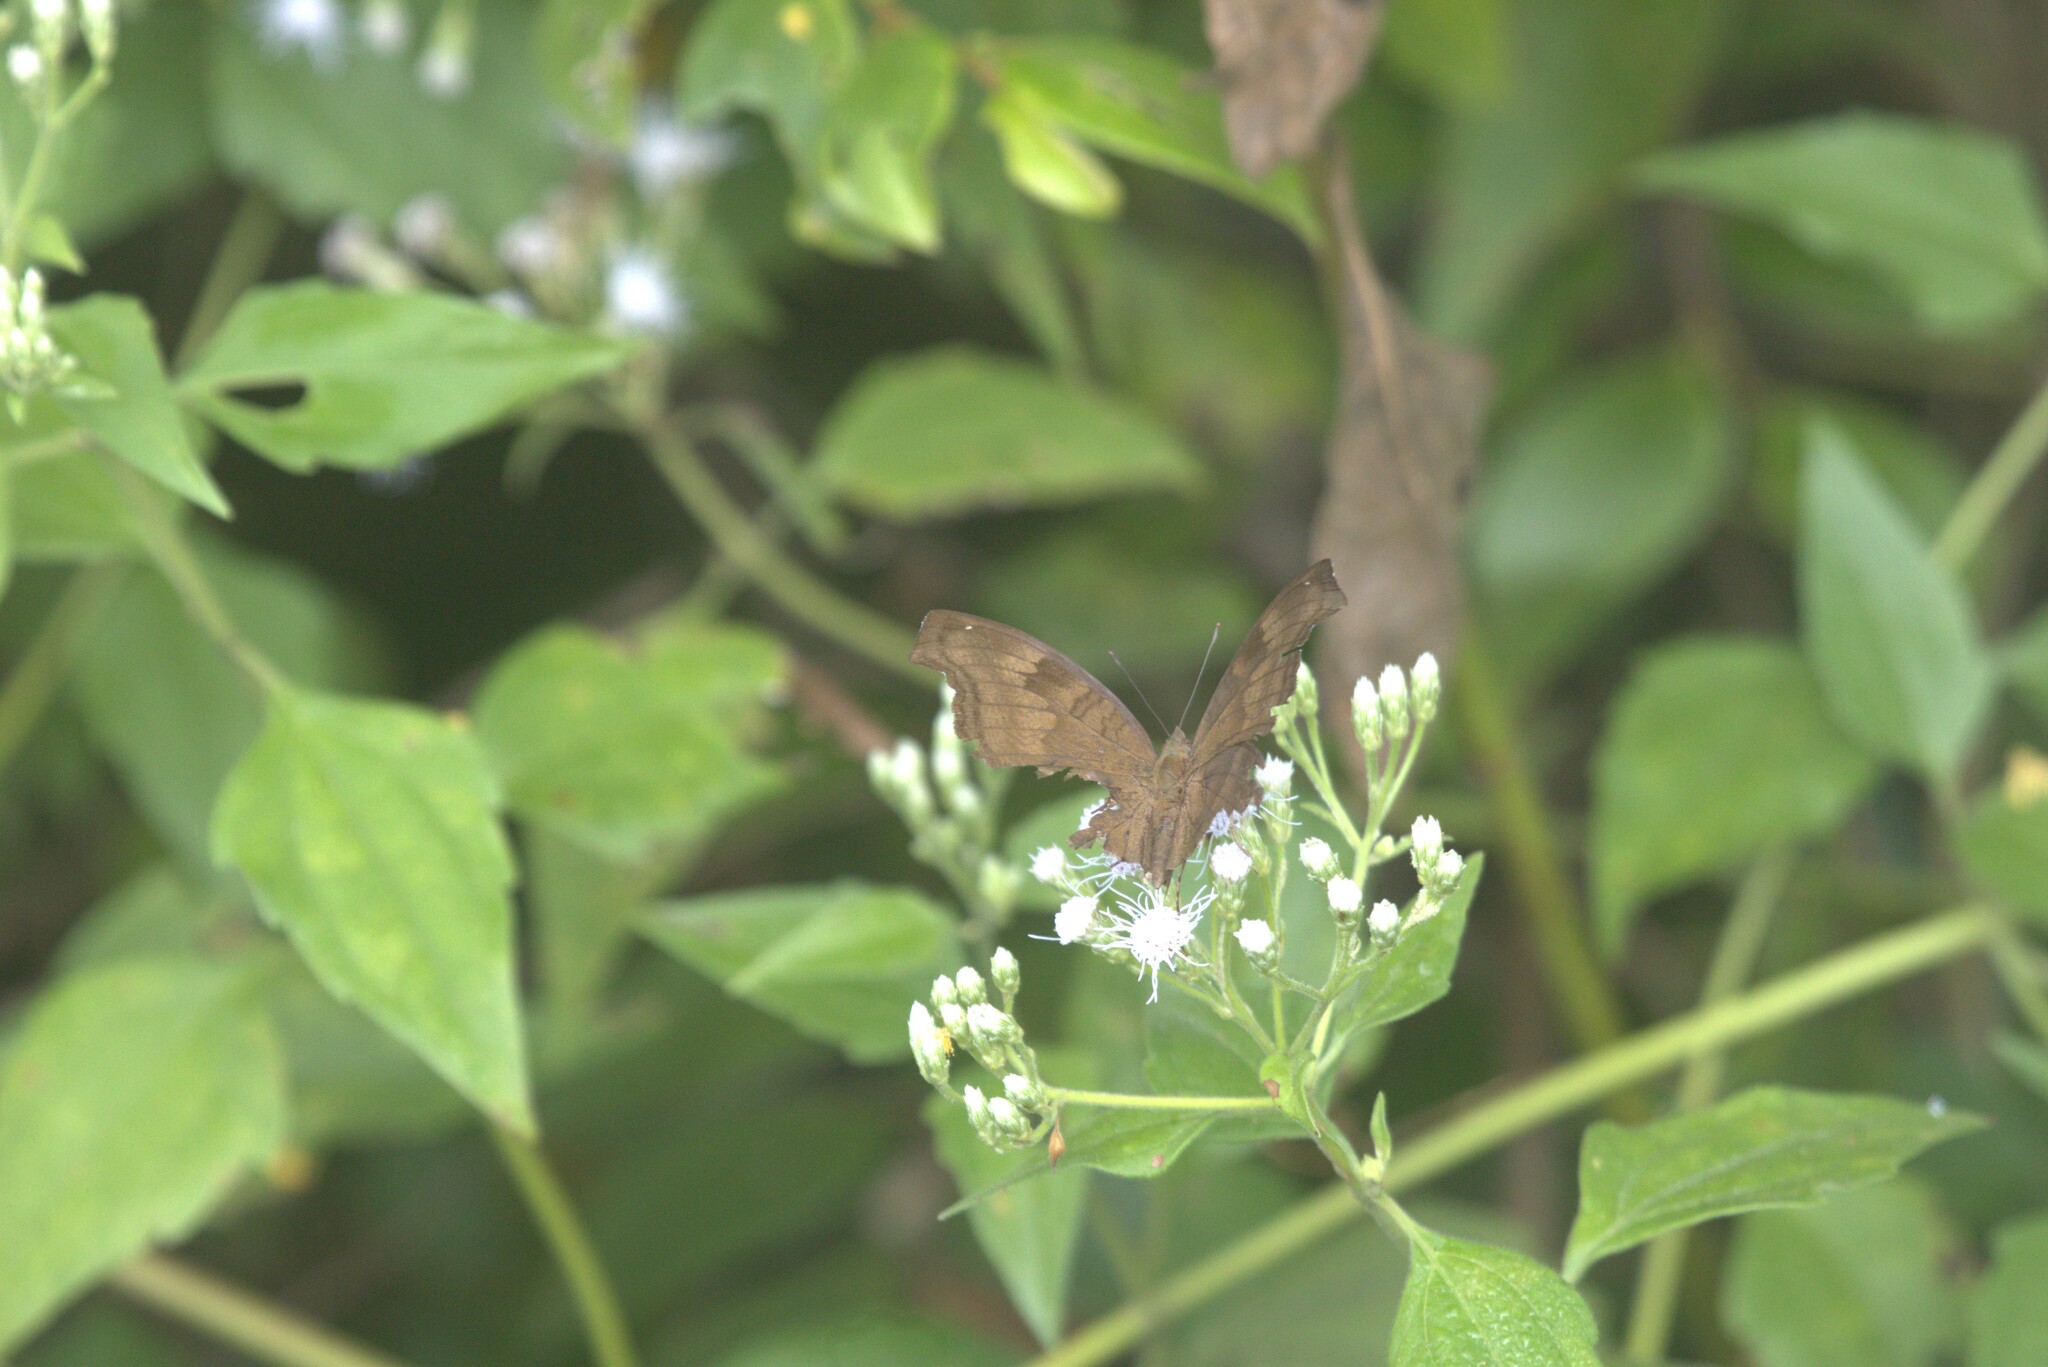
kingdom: Animalia
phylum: Arthropoda
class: Insecta
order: Lepidoptera
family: Nymphalidae
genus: Junonia
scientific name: Junonia iphita
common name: Chocolate pansy
